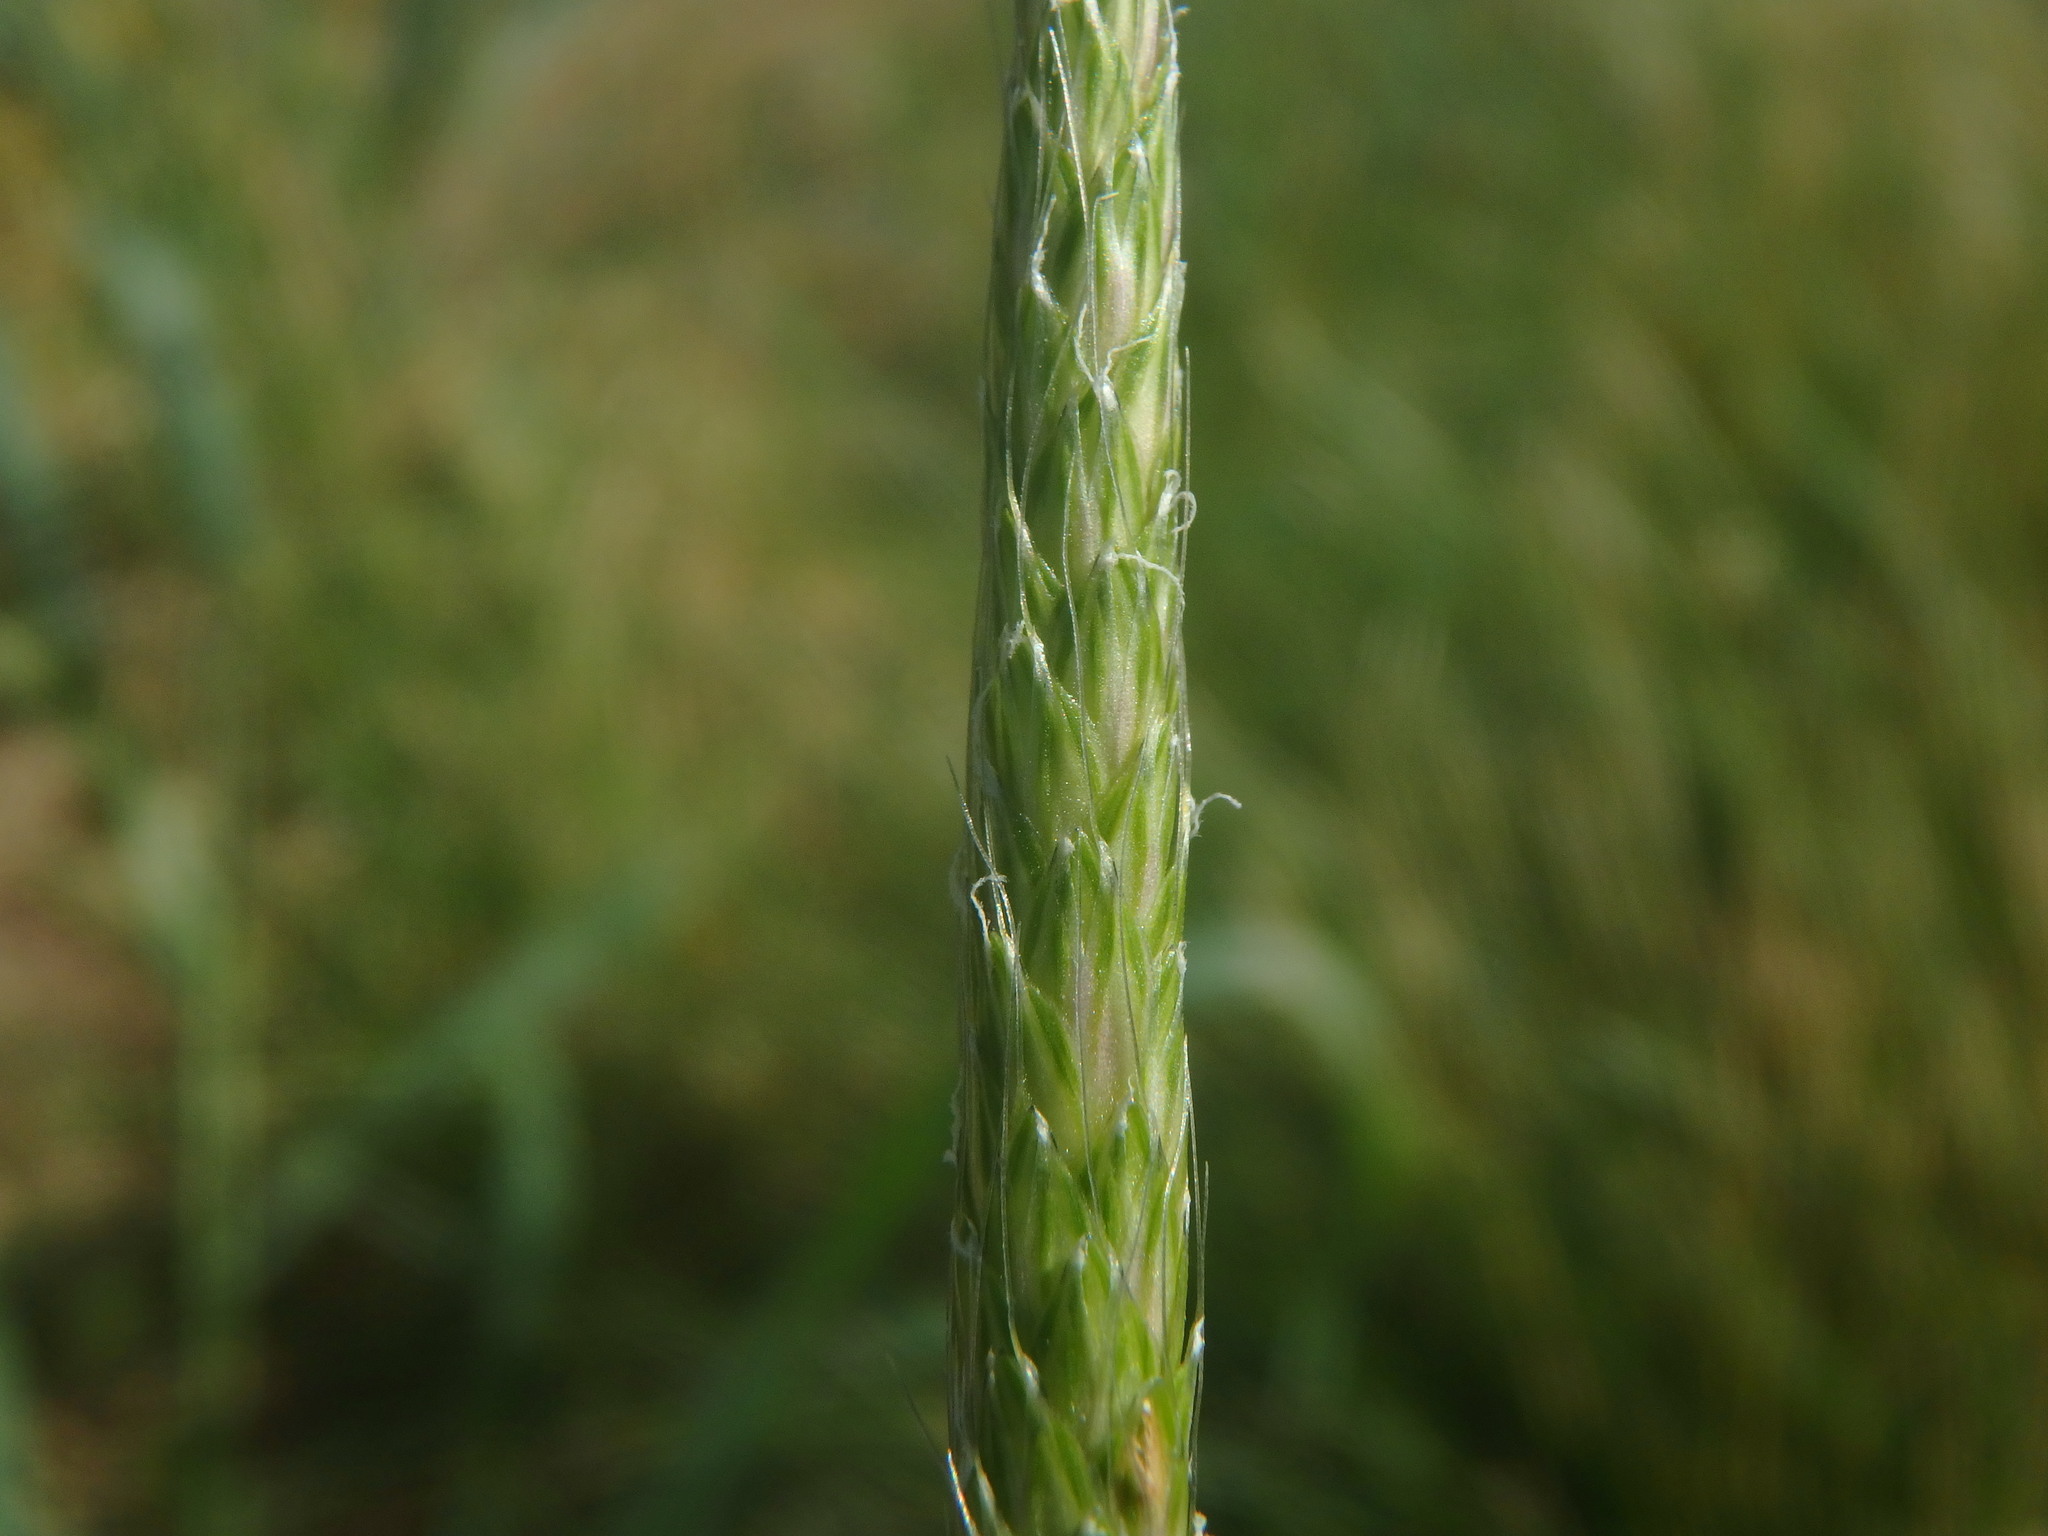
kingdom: Plantae
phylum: Tracheophyta
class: Liliopsida
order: Poales
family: Poaceae
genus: Alopecurus
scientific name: Alopecurus myosuroides
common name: Black-grass
